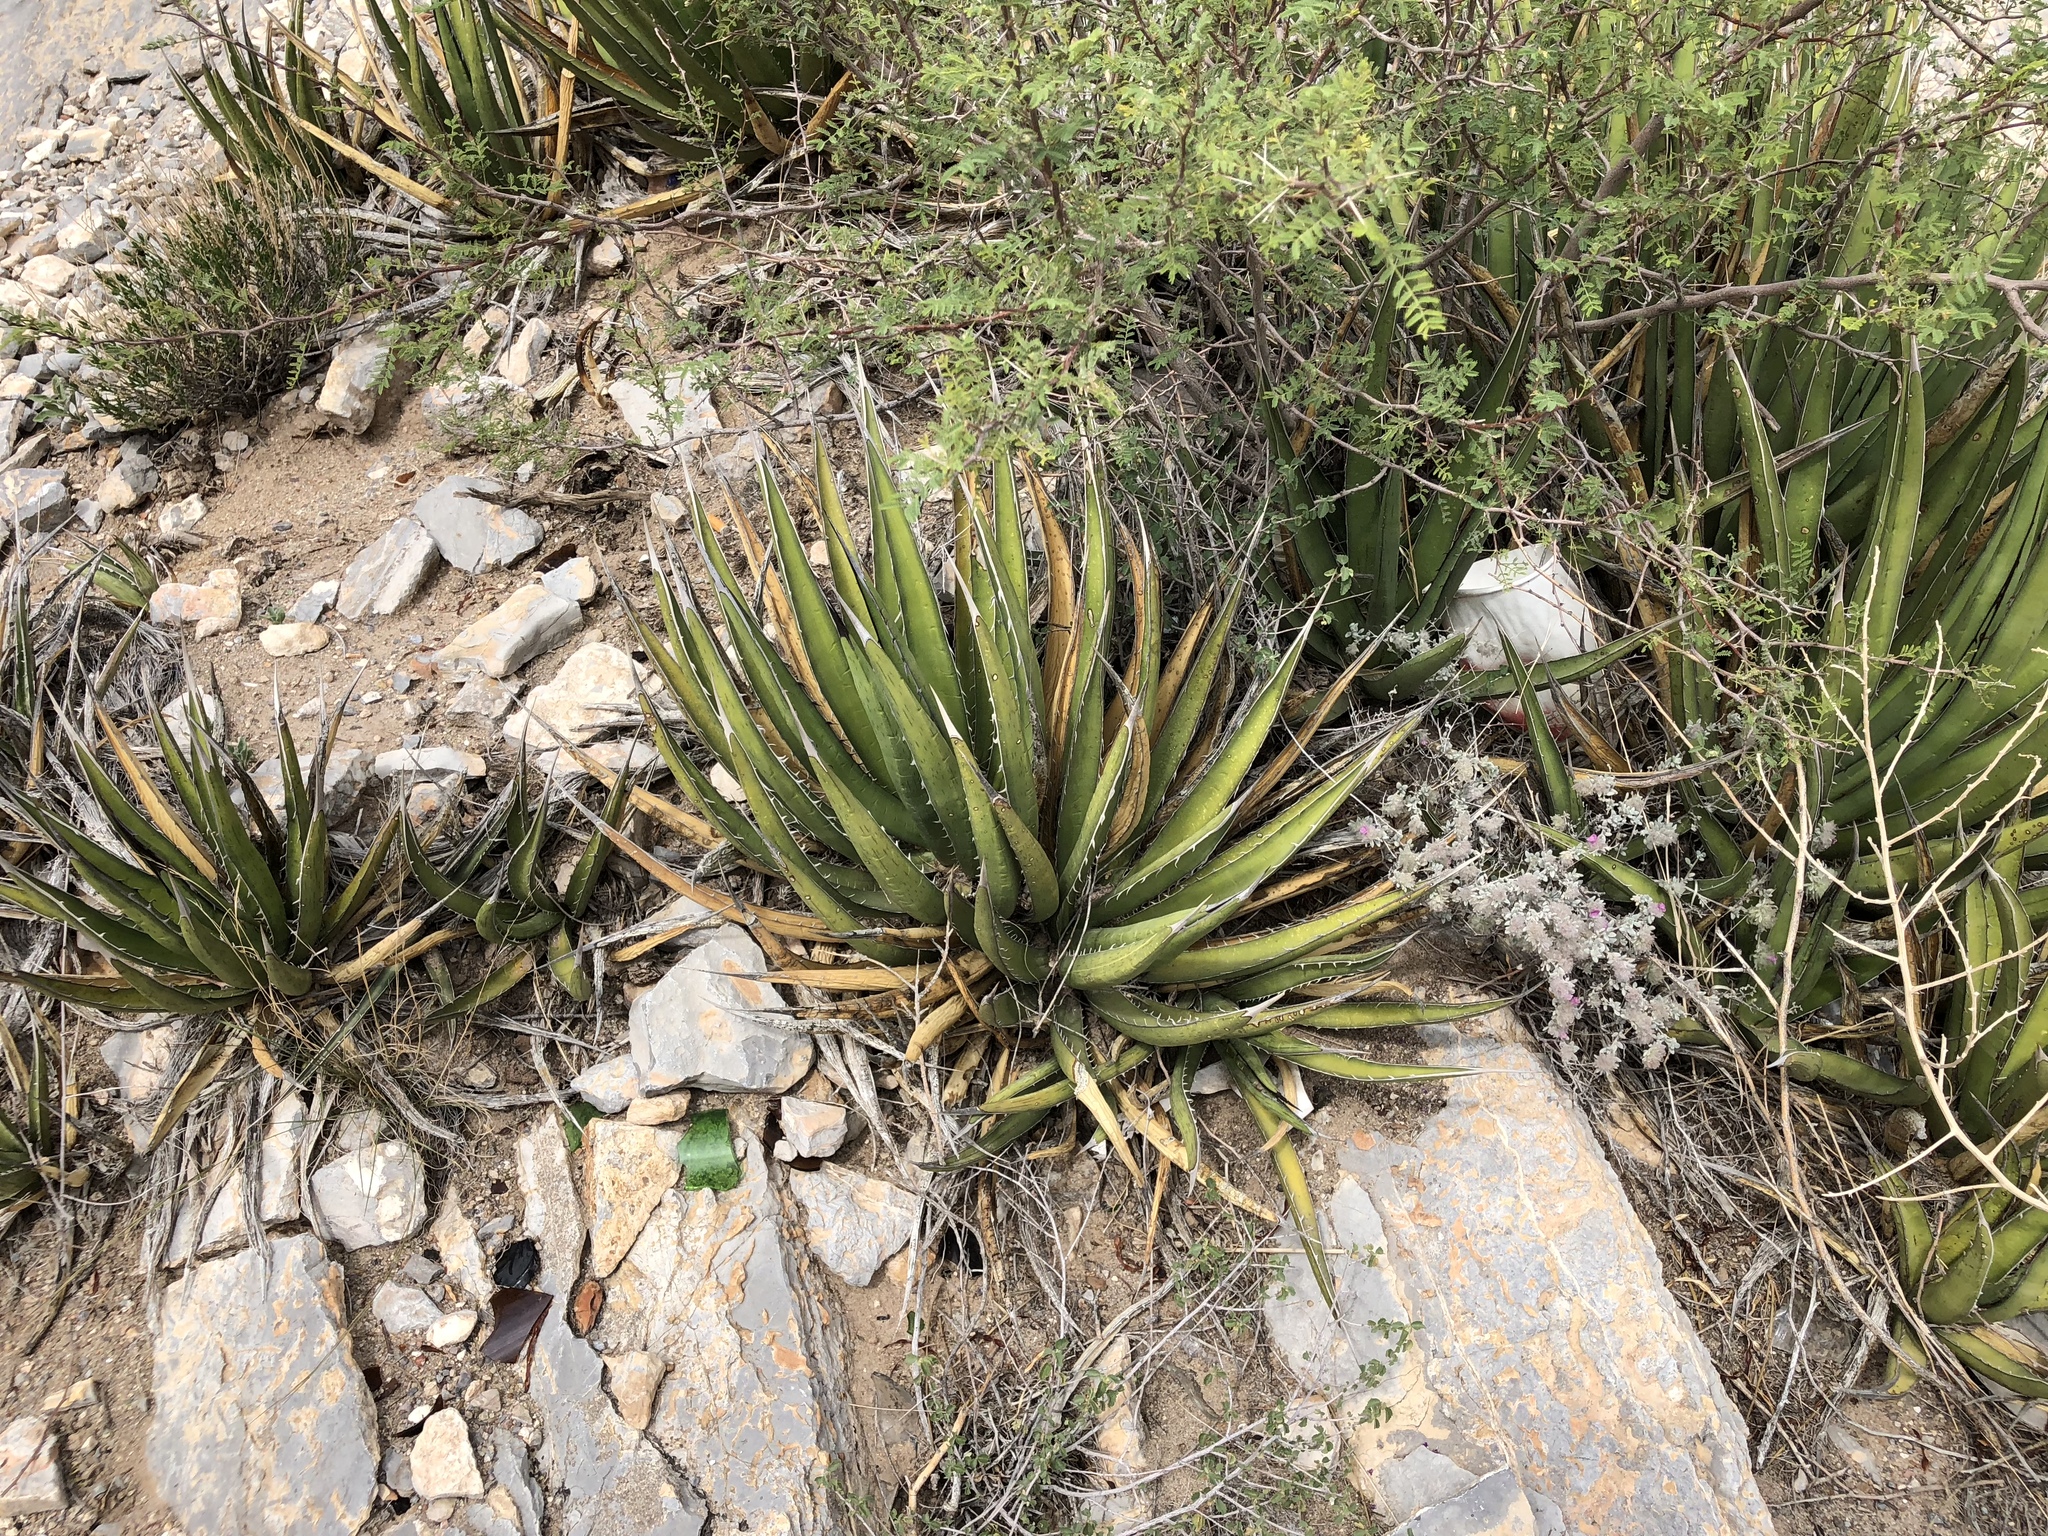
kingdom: Plantae
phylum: Tracheophyta
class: Liliopsida
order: Asparagales
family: Asparagaceae
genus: Agave
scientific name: Agave lechuguilla
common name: Lecheguilla agave
